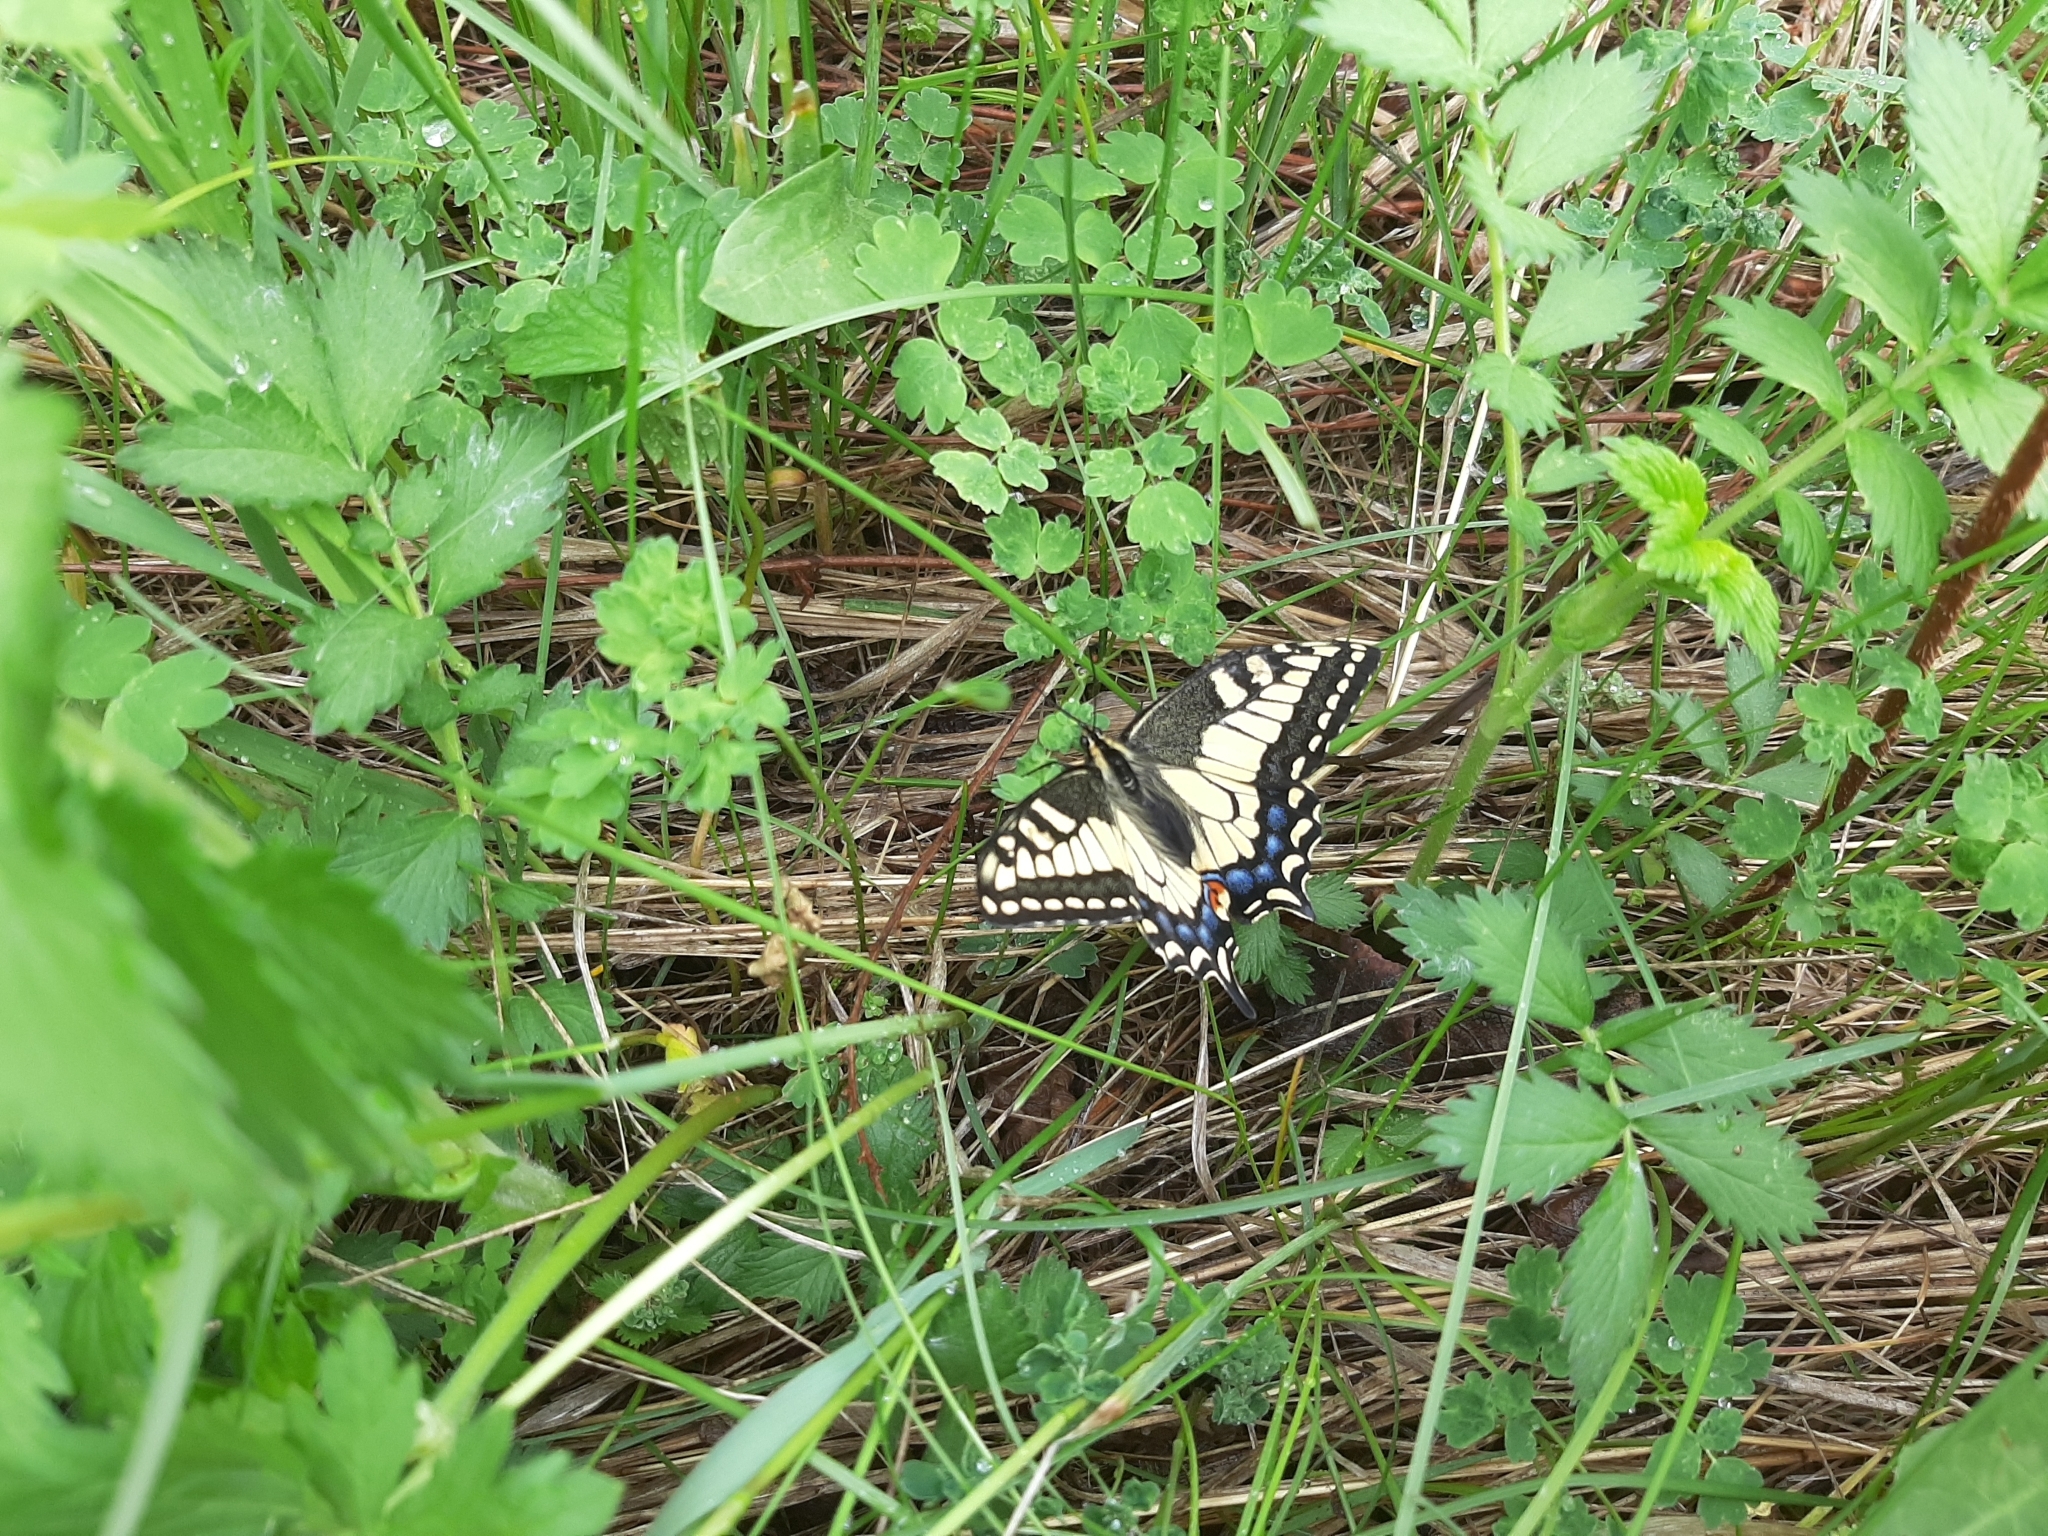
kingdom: Animalia
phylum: Arthropoda
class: Insecta
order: Lepidoptera
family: Papilionidae
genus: Papilio
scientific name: Papilio zelicaon
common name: Anise swallowtail
